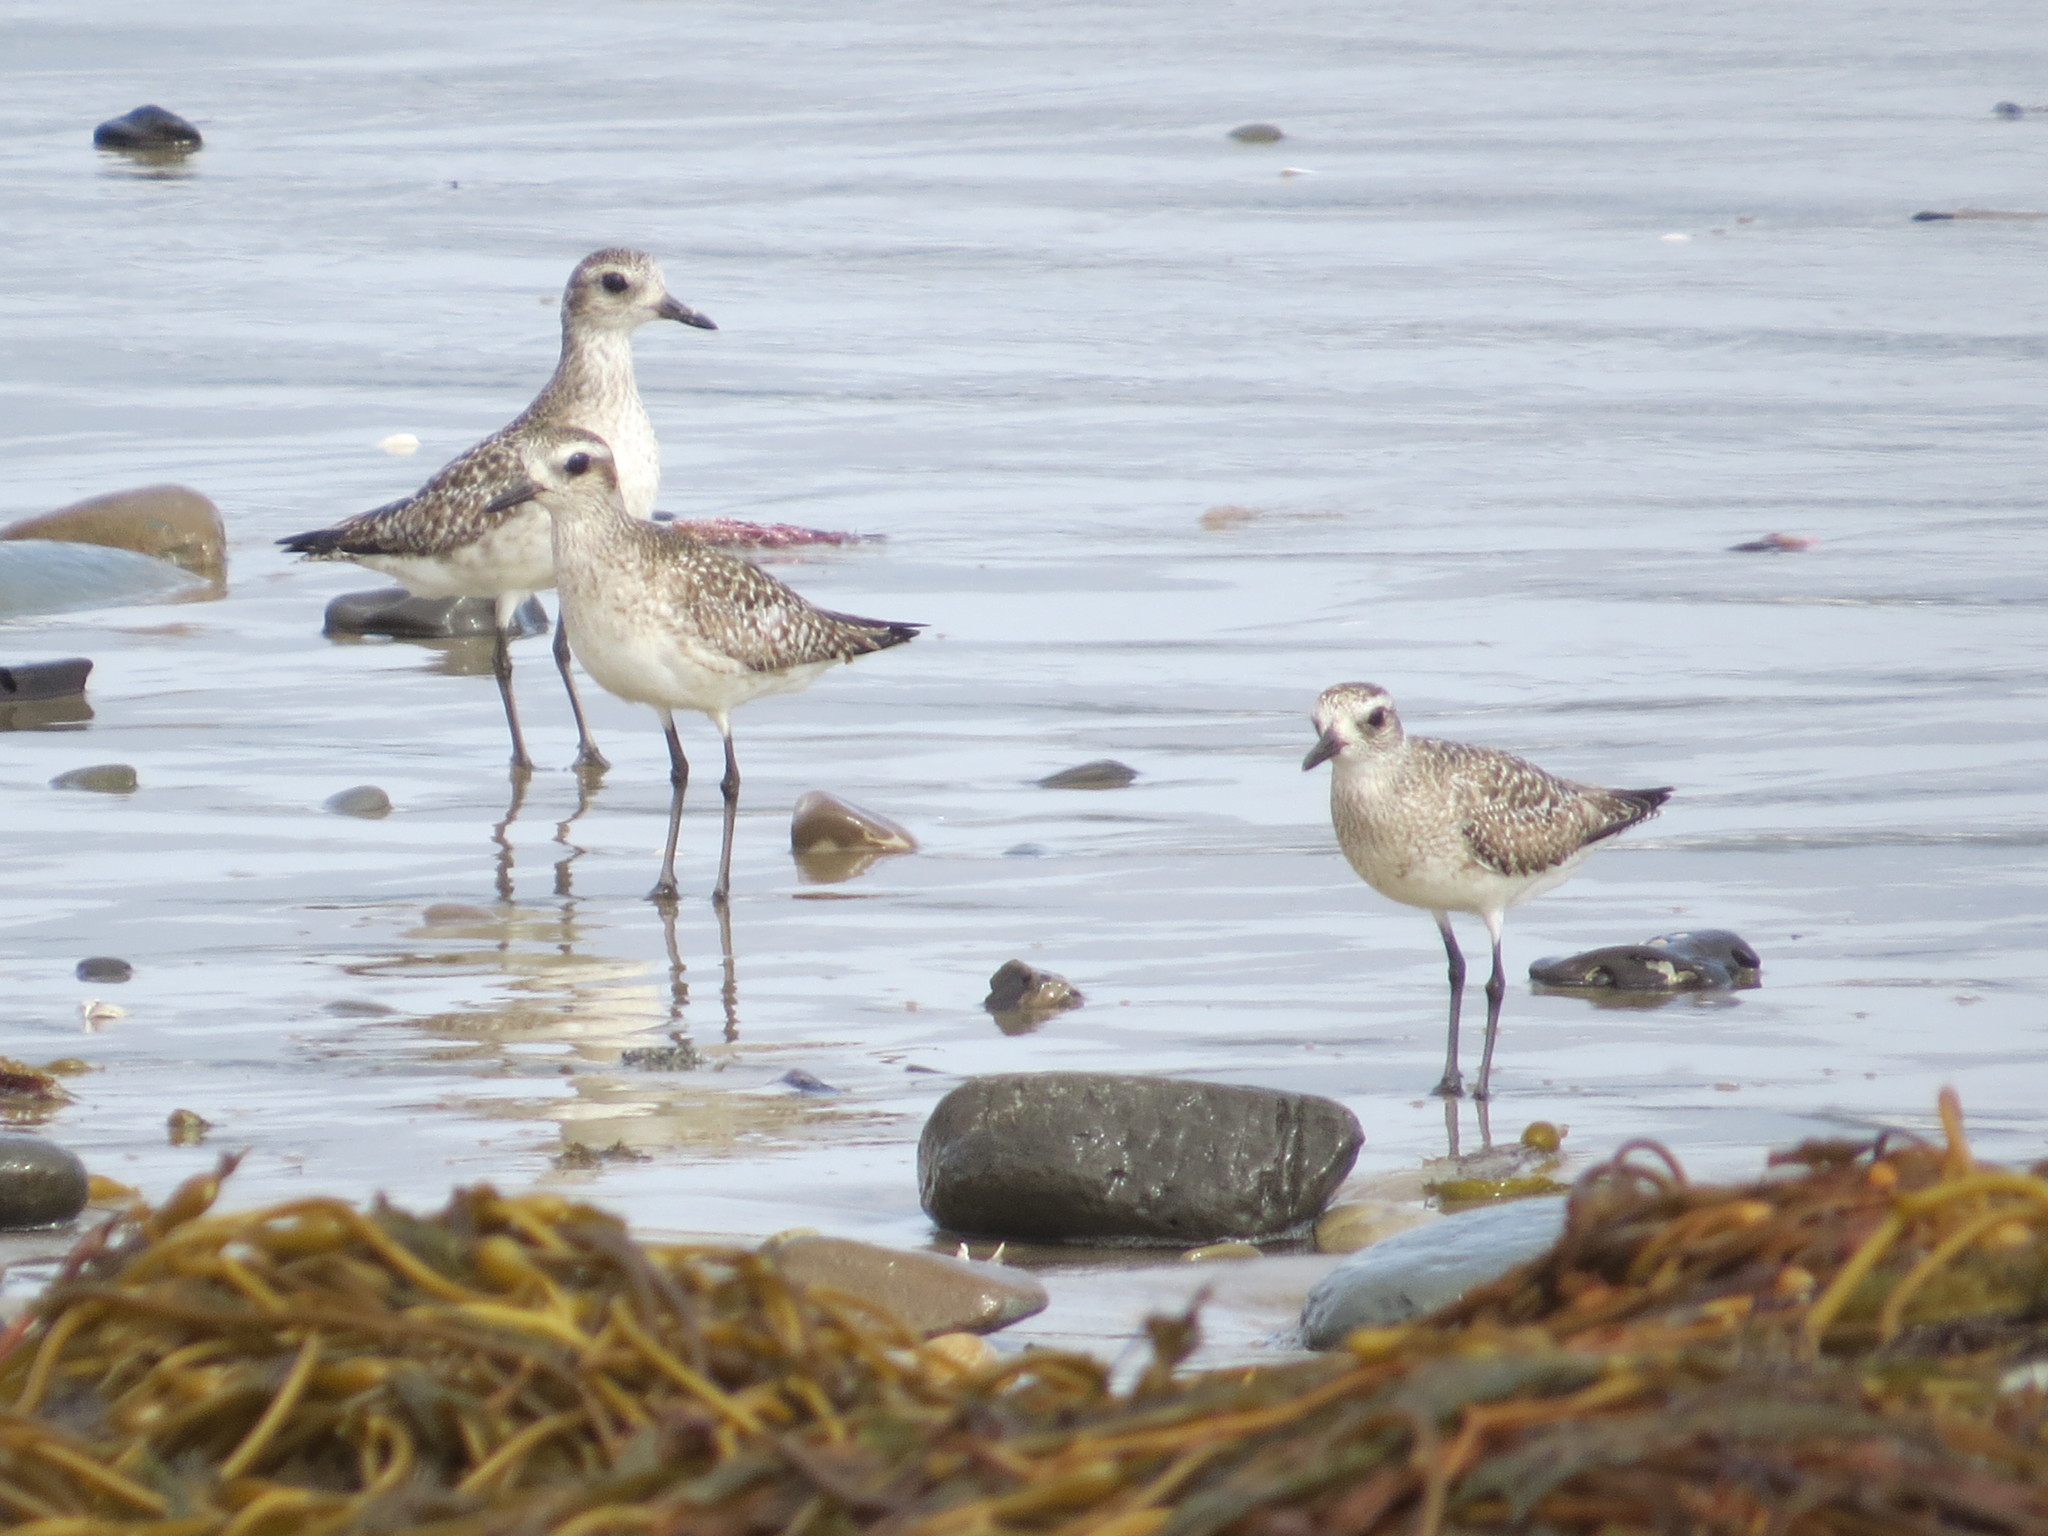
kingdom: Animalia
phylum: Chordata
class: Aves
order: Charadriiformes
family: Charadriidae
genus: Pluvialis
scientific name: Pluvialis squatarola
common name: Grey plover
